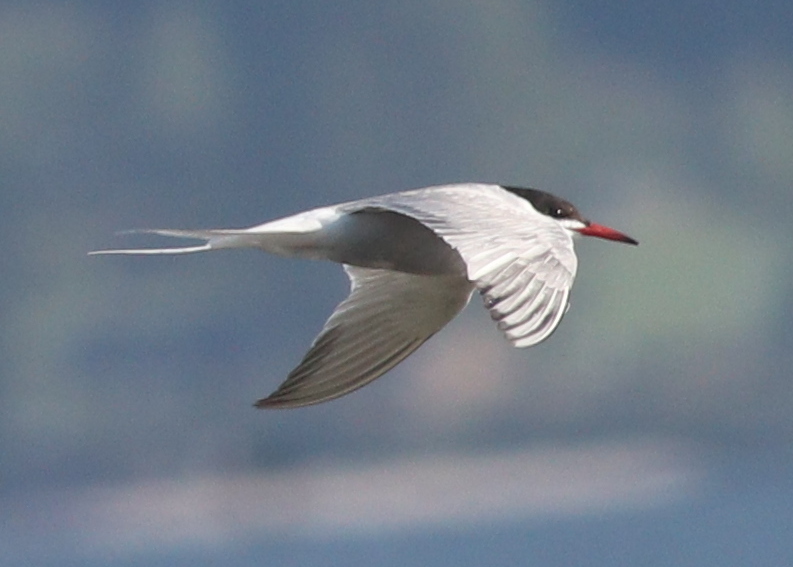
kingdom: Animalia
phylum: Chordata
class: Aves
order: Charadriiformes
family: Laridae
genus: Sterna
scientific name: Sterna hirundo
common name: Common tern
